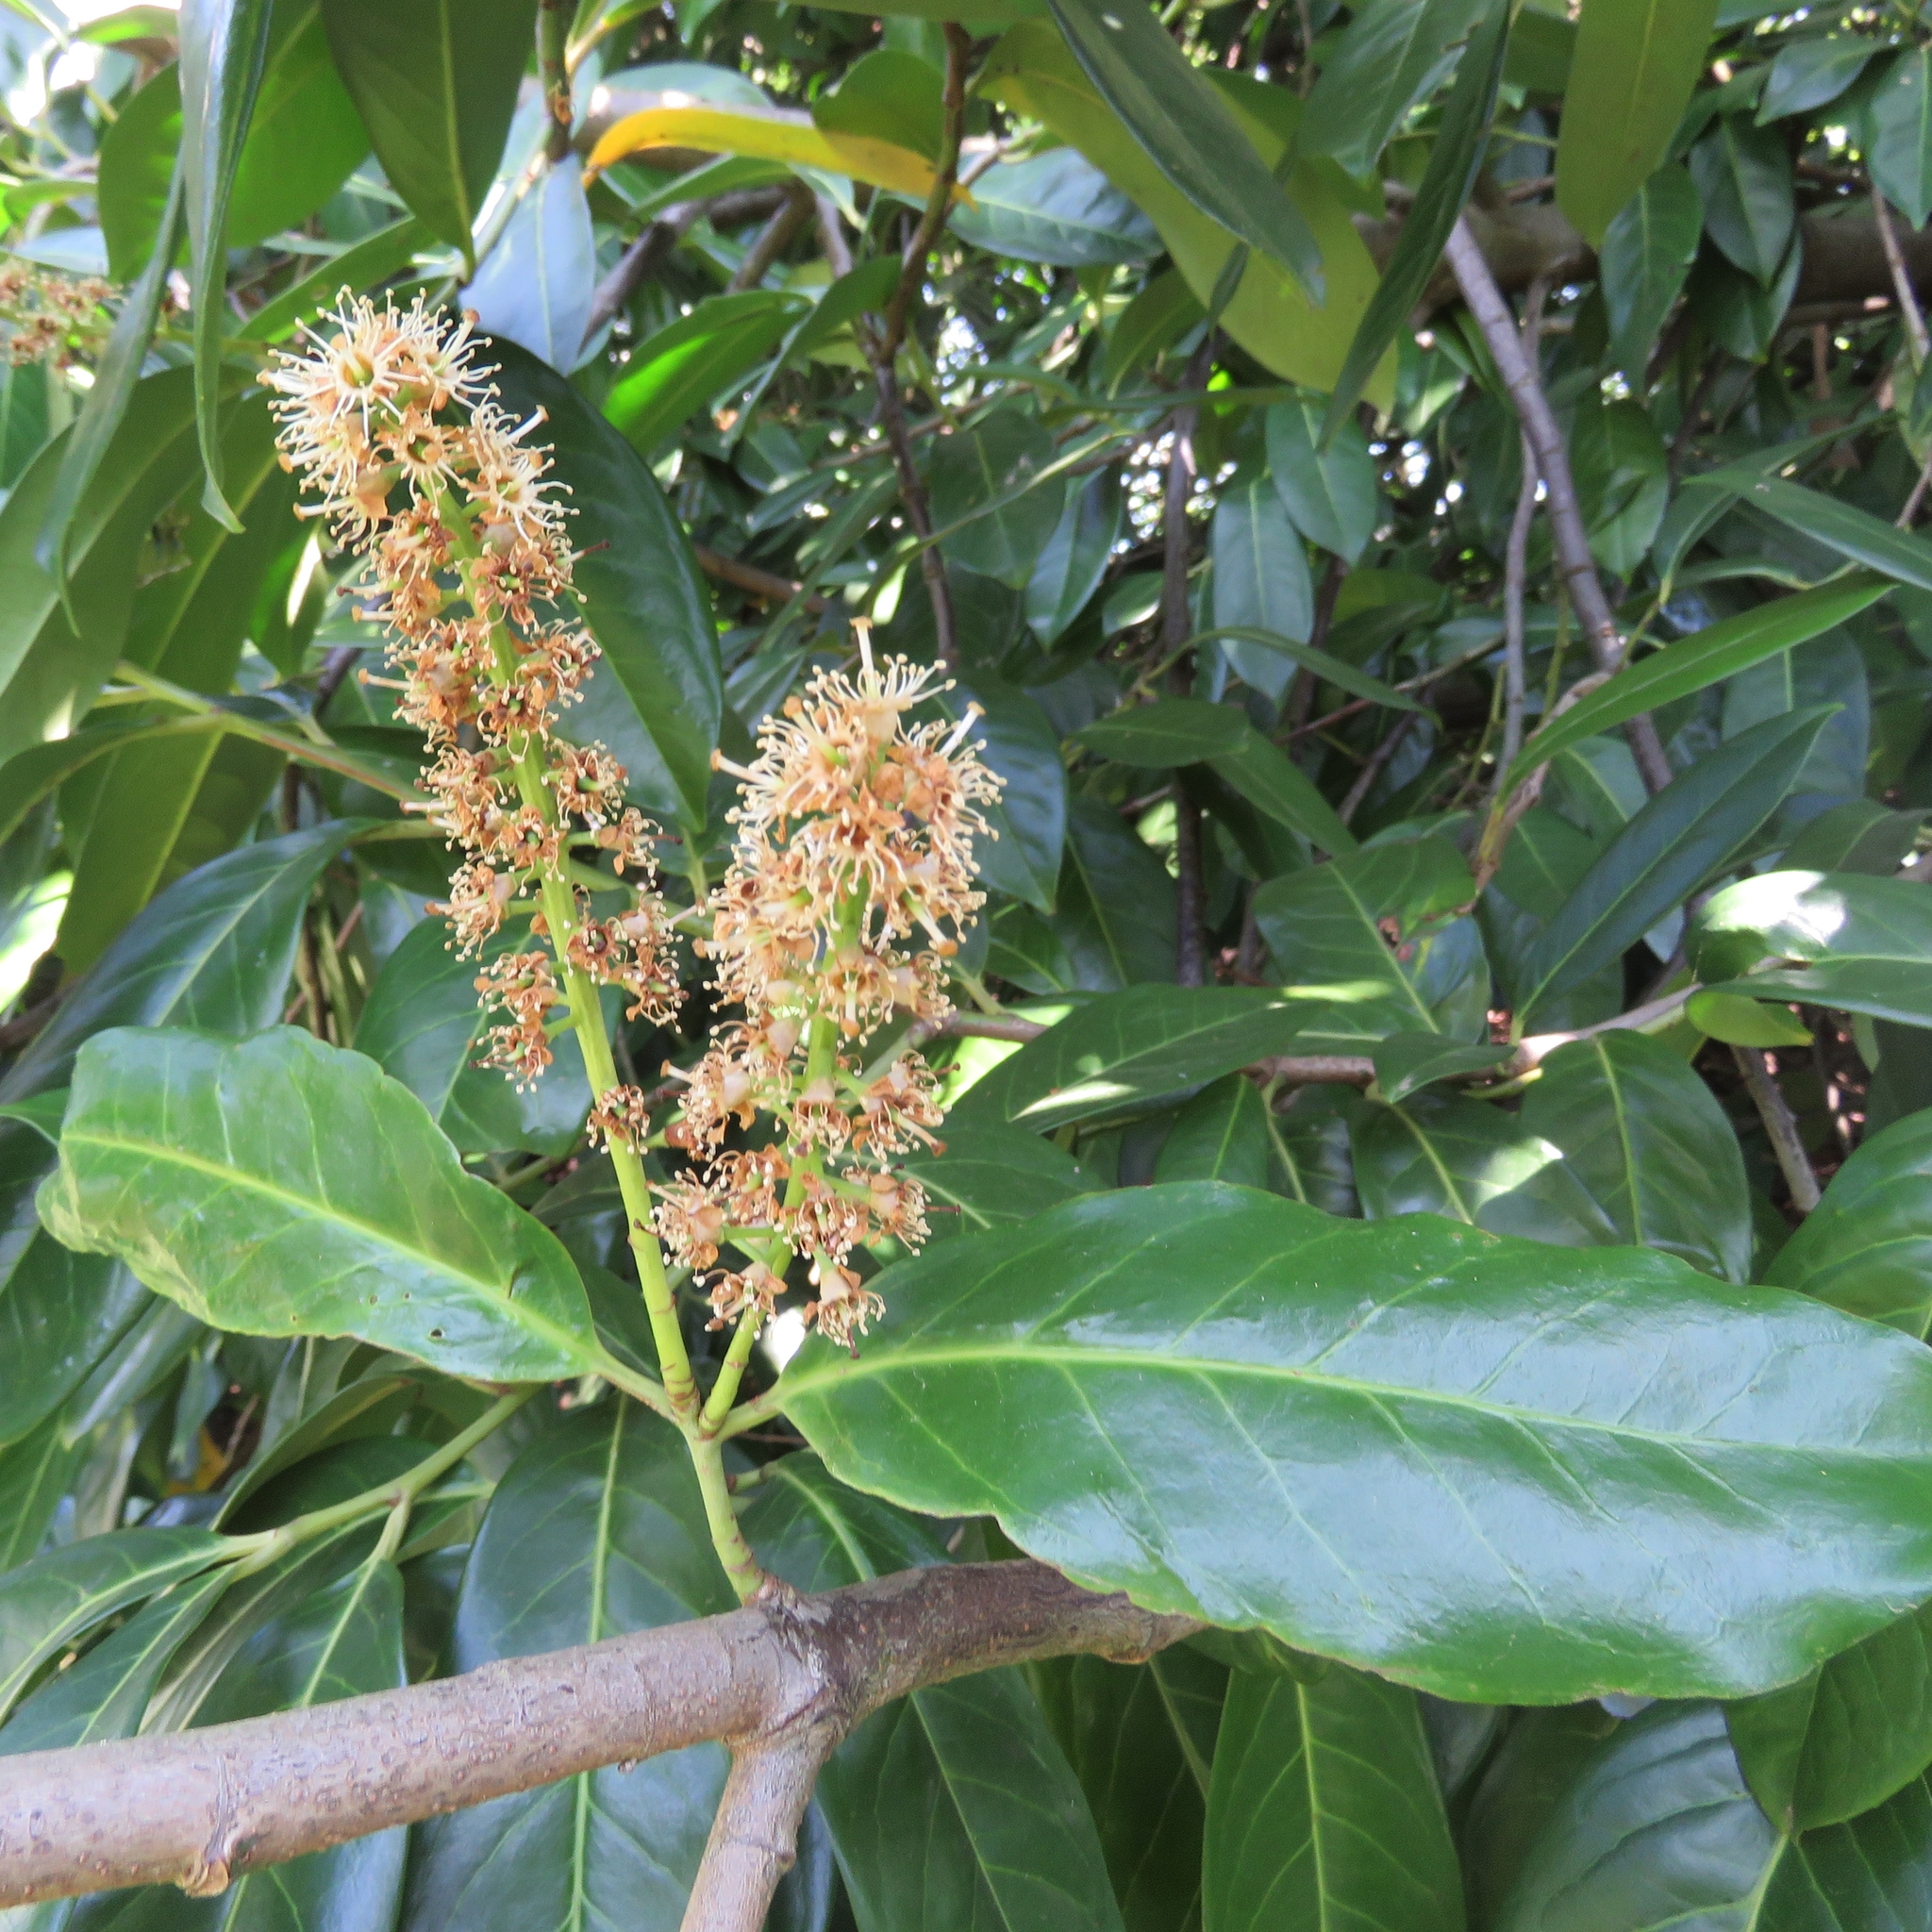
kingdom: Plantae
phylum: Tracheophyta
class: Magnoliopsida
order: Rosales
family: Rosaceae
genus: Prunus
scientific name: Prunus laurocerasus
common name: Cherry laurel
